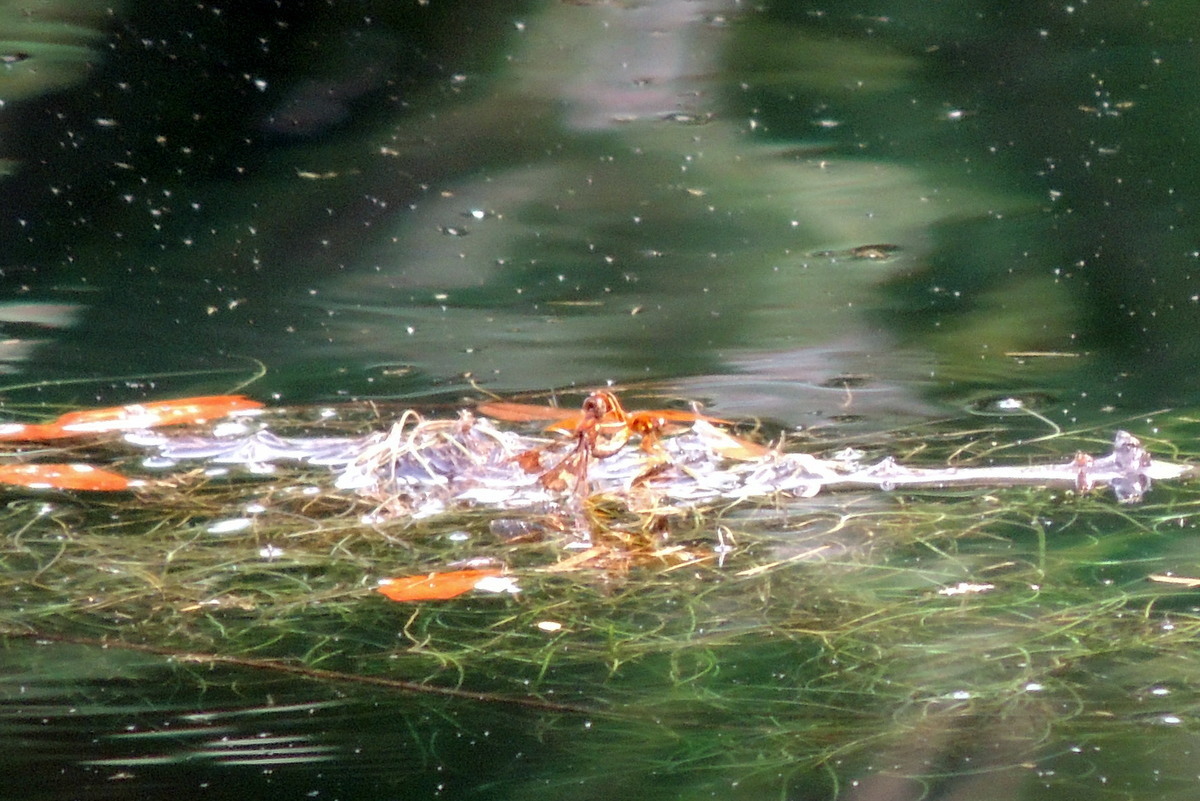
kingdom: Animalia
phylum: Arthropoda
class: Insecta
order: Odonata
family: Libellulidae
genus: Perithemis
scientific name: Perithemis tenera
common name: Eastern amberwing
